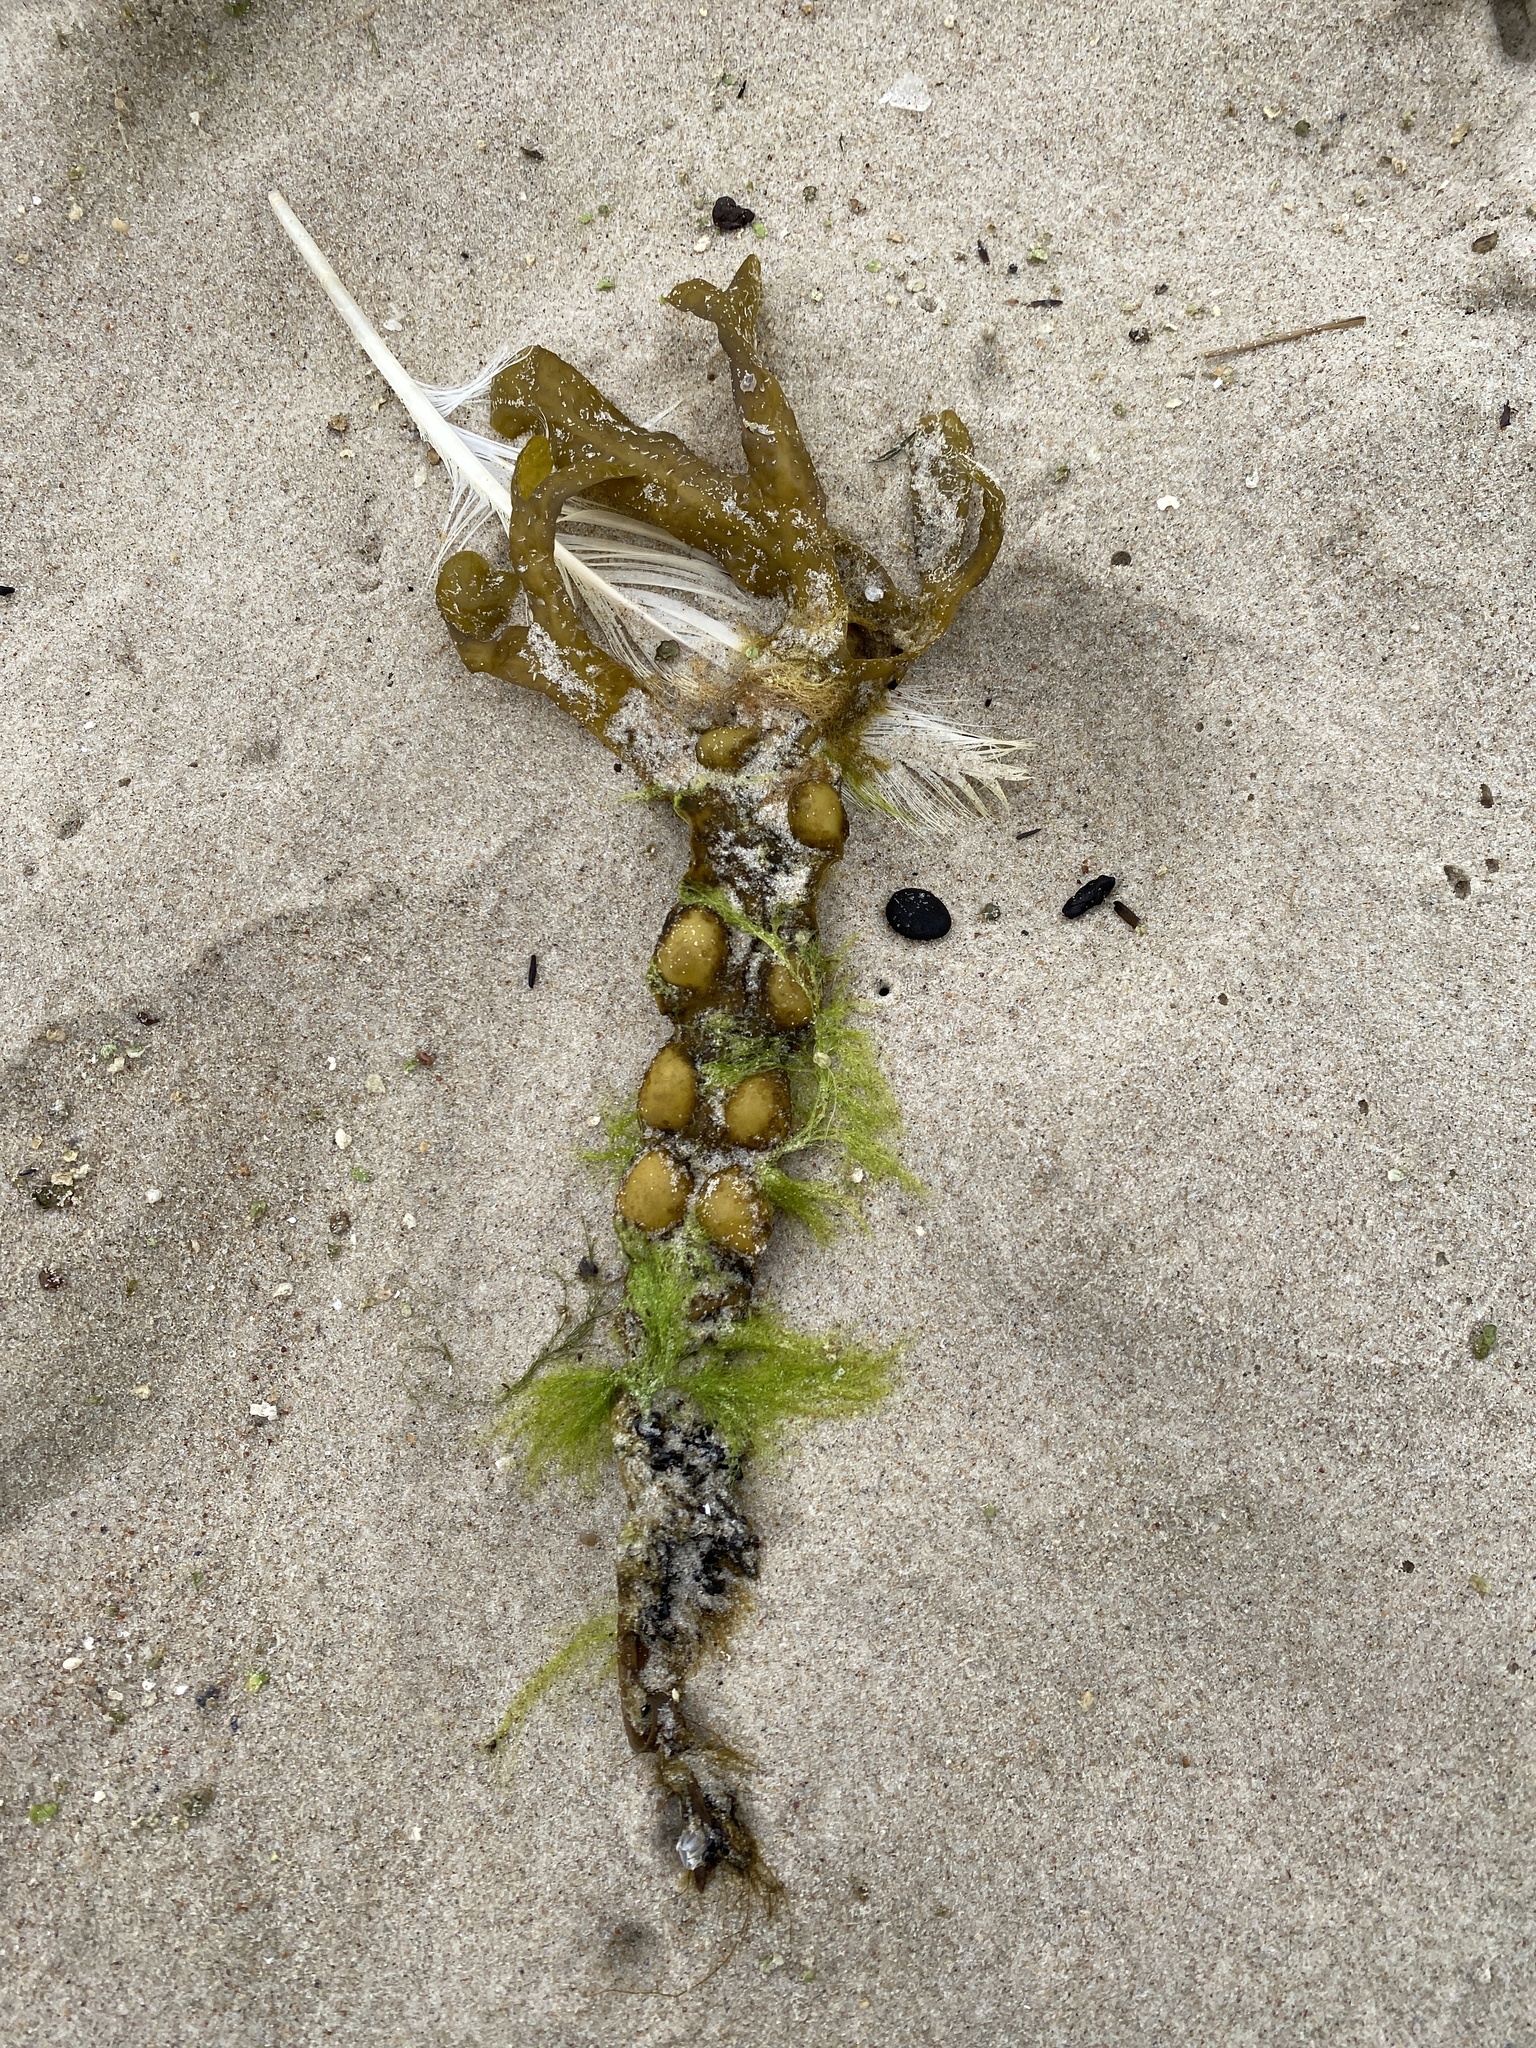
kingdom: Chromista
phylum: Ochrophyta
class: Phaeophyceae
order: Fucales
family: Fucaceae
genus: Fucus
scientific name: Fucus vesiculosus
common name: Bladder wrack
